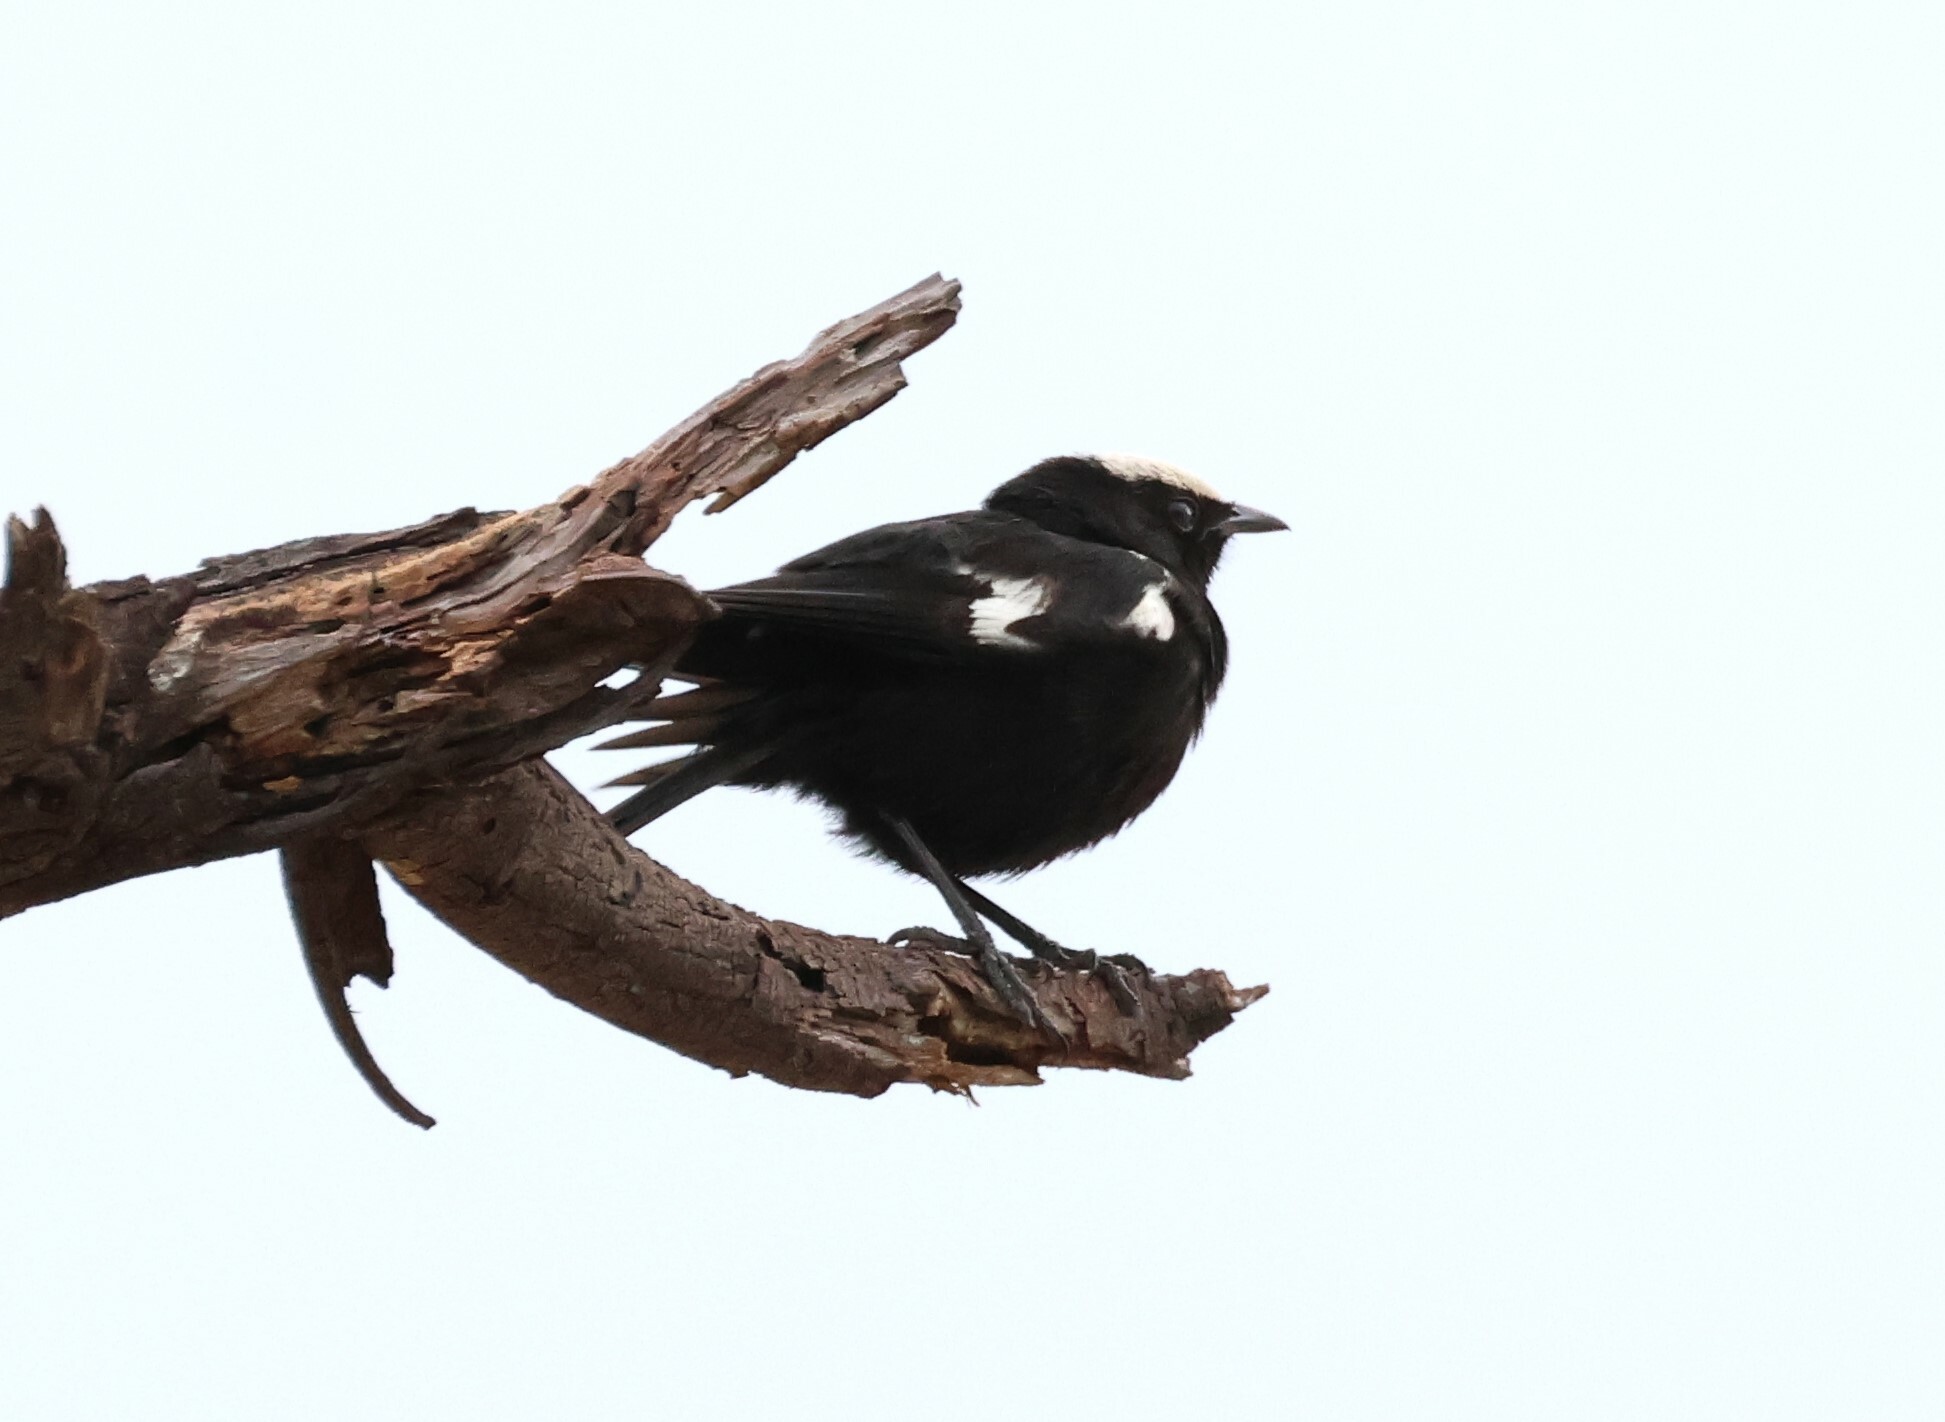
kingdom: Animalia
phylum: Chordata
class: Aves
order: Passeriformes
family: Muscicapidae
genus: Pentholaea
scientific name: Pentholaea arnotti
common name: Arnot's chat
